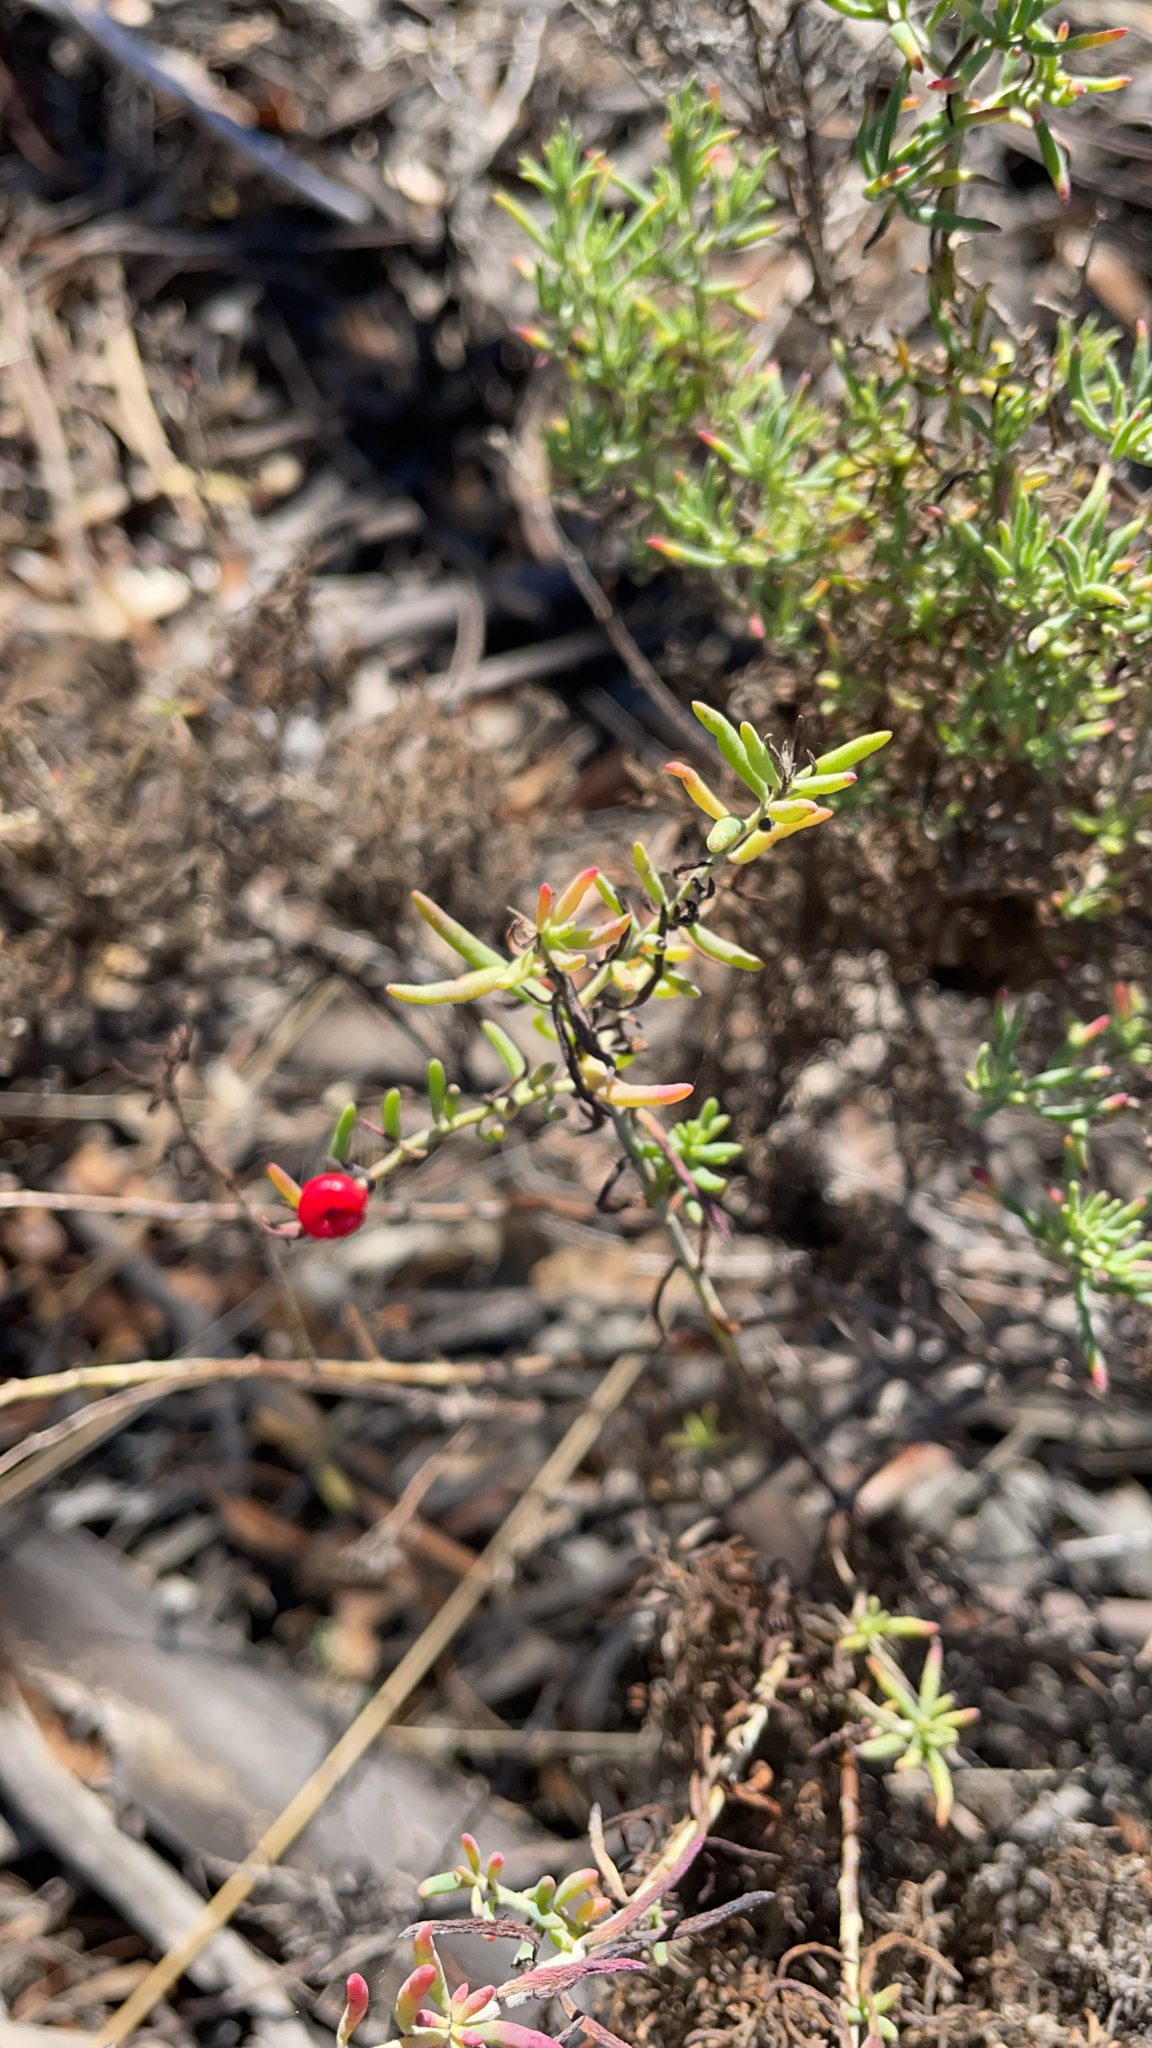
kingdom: Plantae
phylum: Tracheophyta
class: Magnoliopsida
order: Caryophyllales
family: Amaranthaceae
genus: Enchylaena
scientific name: Enchylaena tomentosa
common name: Ruby saltbush
